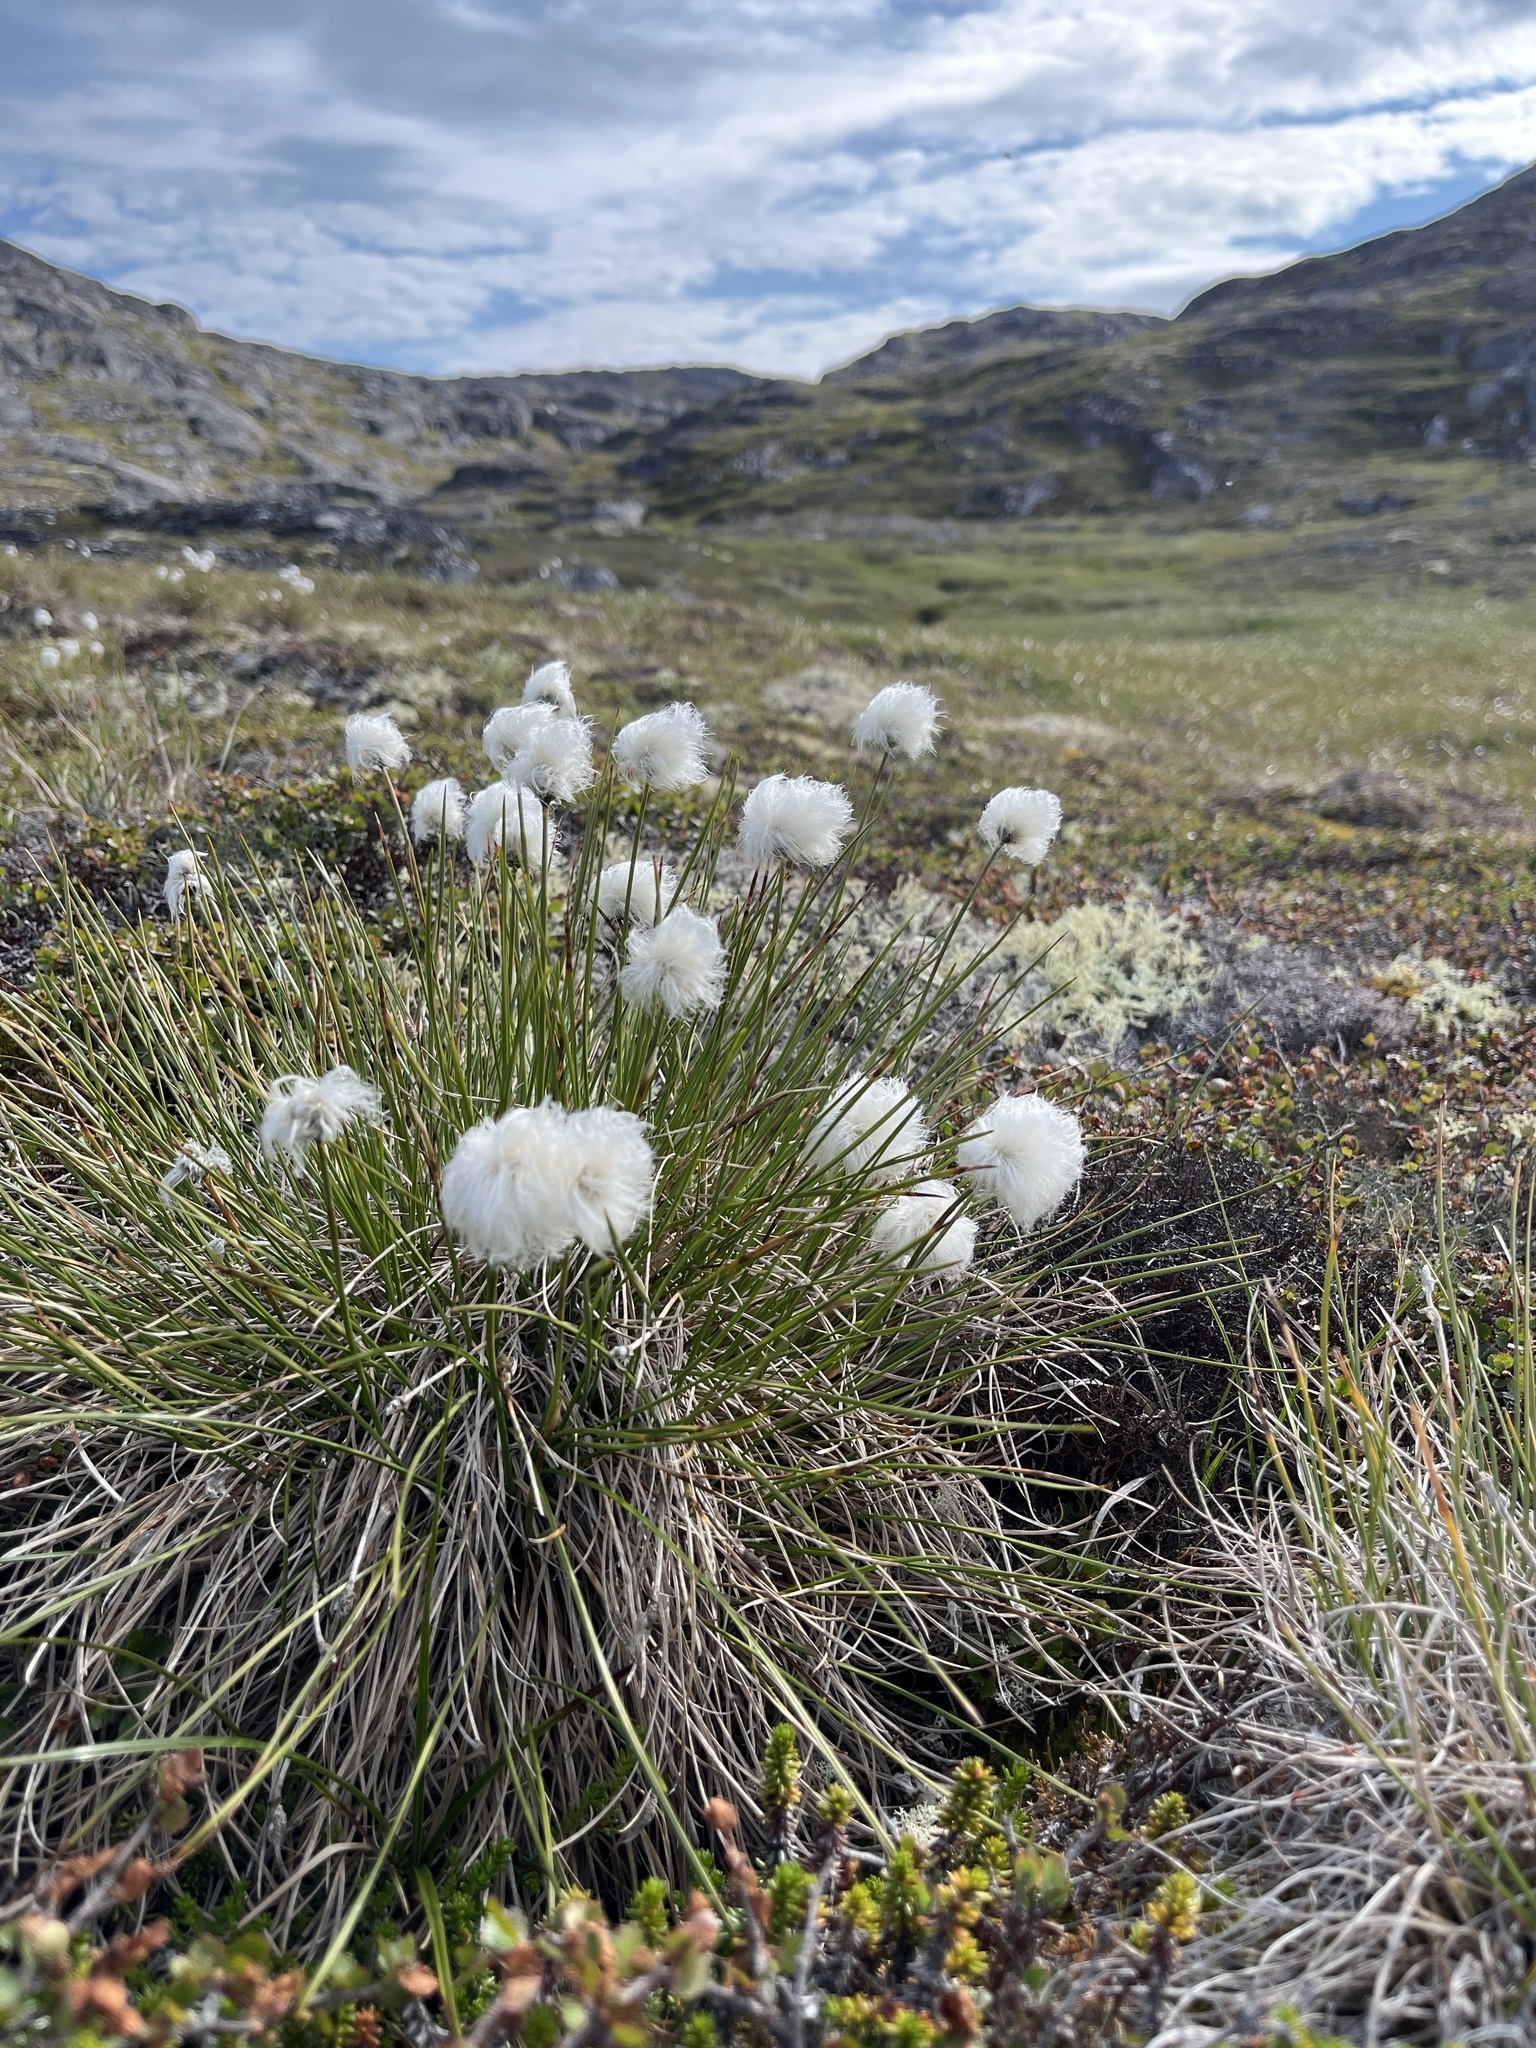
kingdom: Plantae
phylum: Tracheophyta
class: Liliopsida
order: Poales
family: Cyperaceae
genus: Eriophorum
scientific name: Eriophorum vaginatum
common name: Hare's-tail cottongrass
